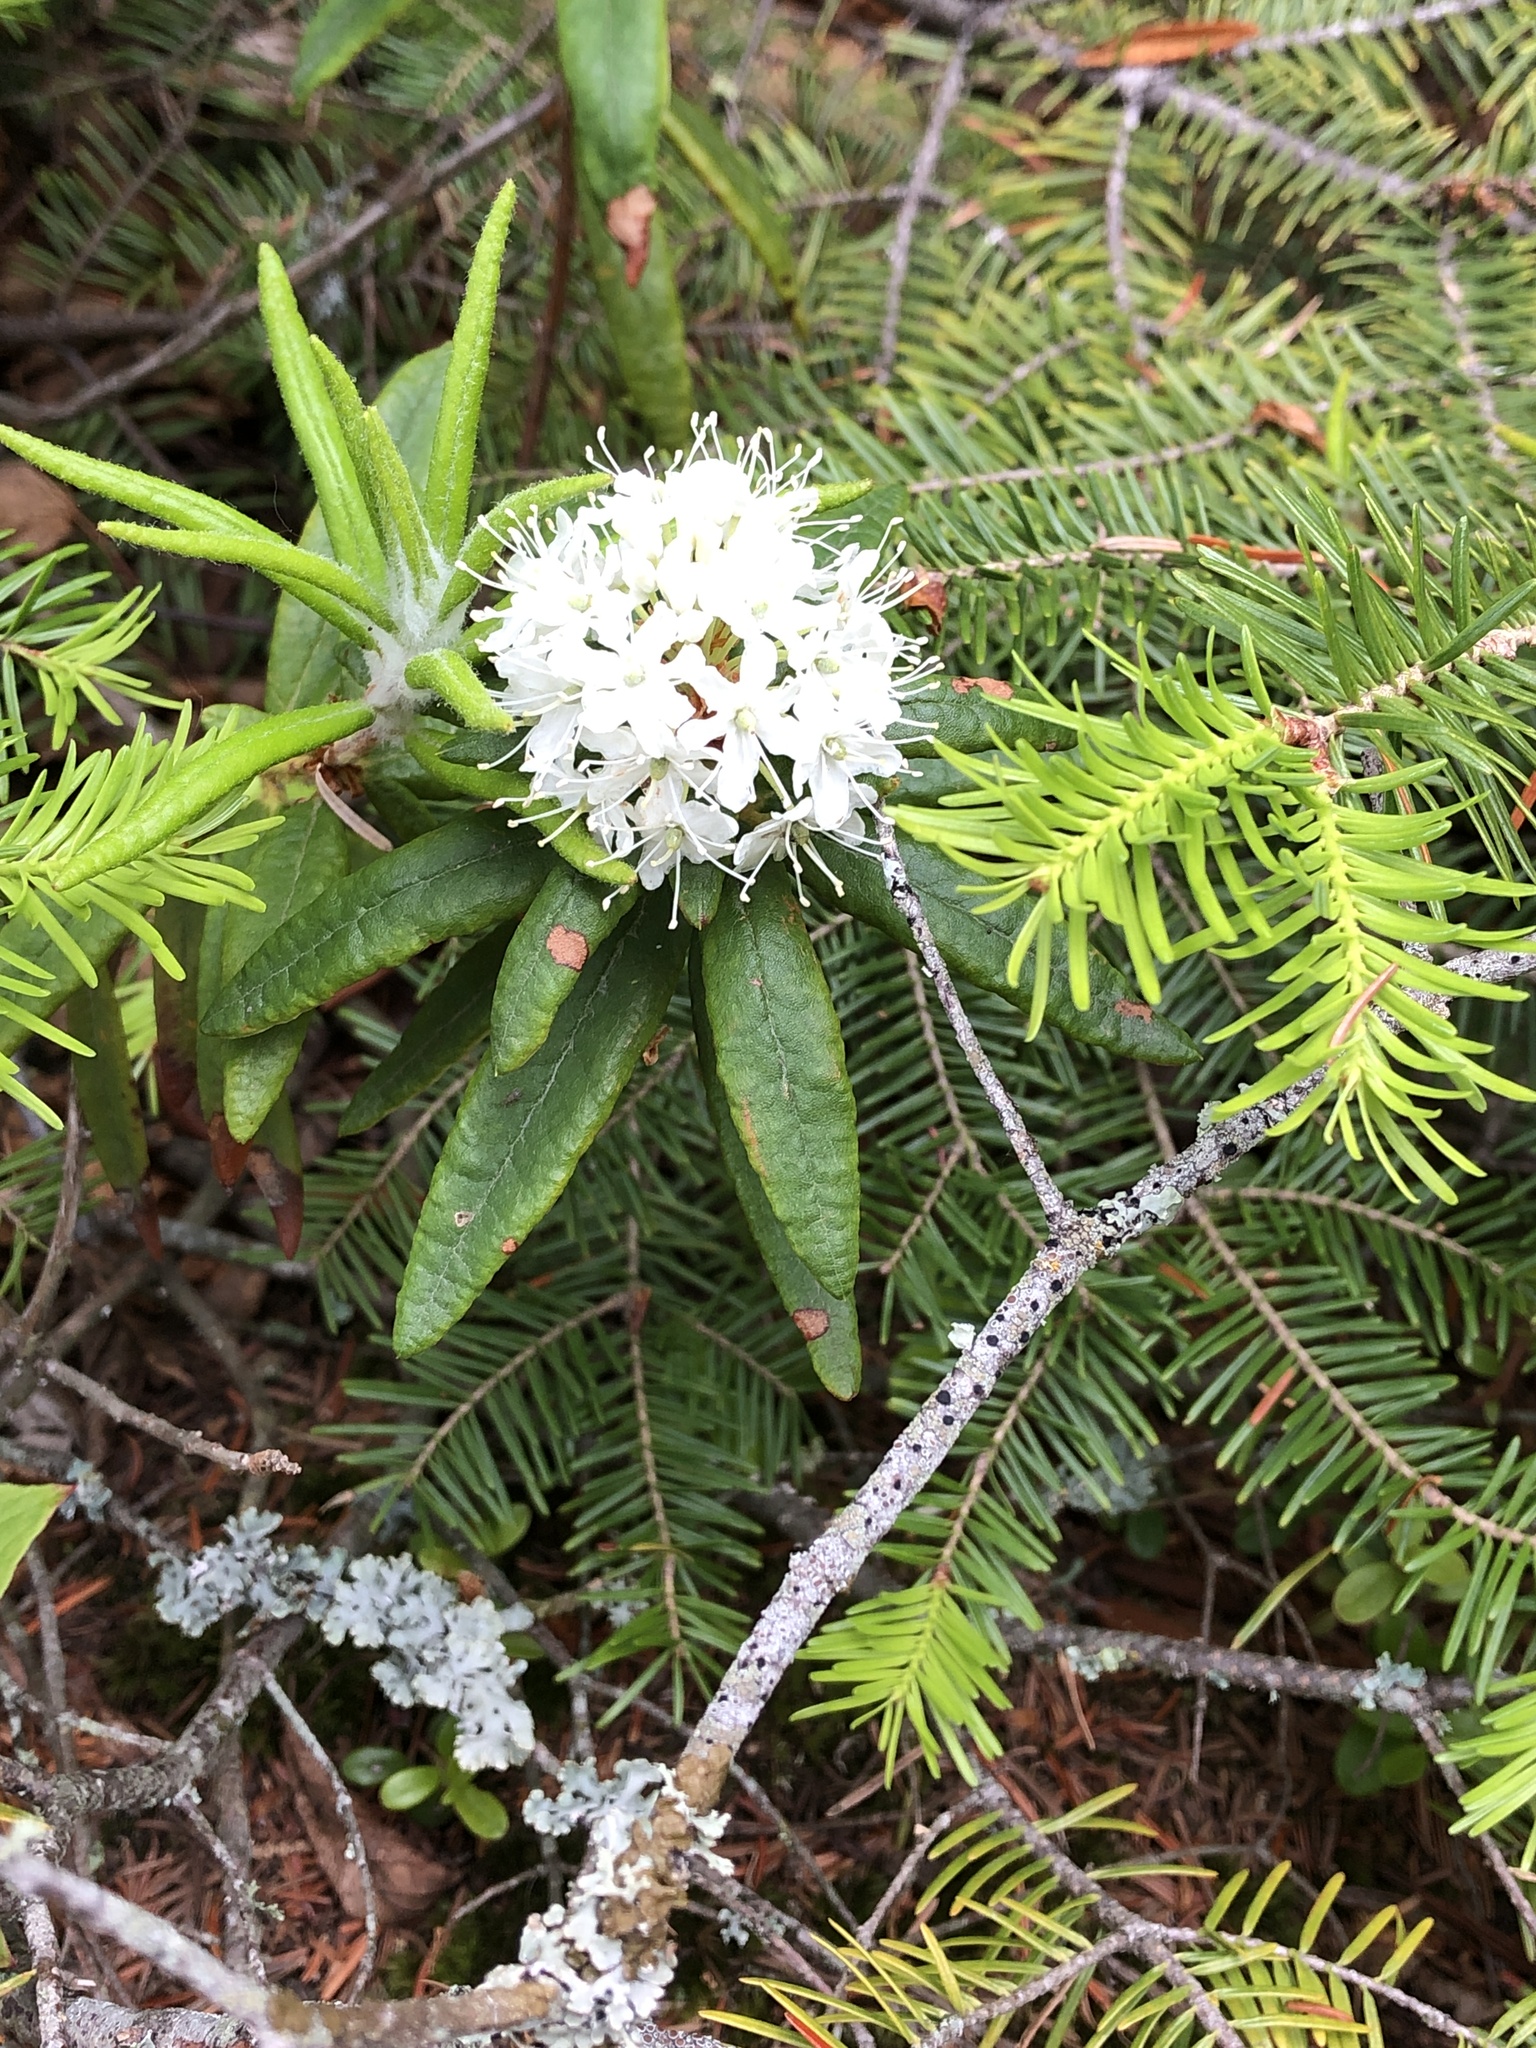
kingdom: Plantae
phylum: Tracheophyta
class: Magnoliopsida
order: Ericales
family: Ericaceae
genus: Rhododendron
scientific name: Rhododendron groenlandicum
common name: Bog labrador tea
